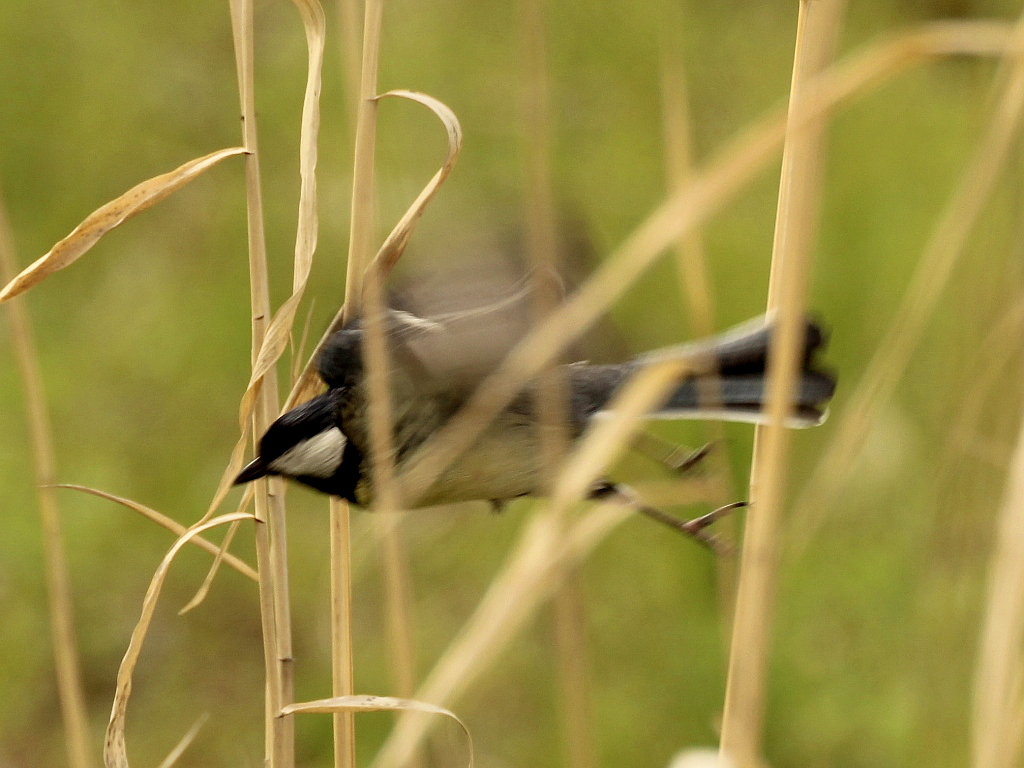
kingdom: Animalia
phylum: Chordata
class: Aves
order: Passeriformes
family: Paridae
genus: Parus
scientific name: Parus major
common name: Great tit
